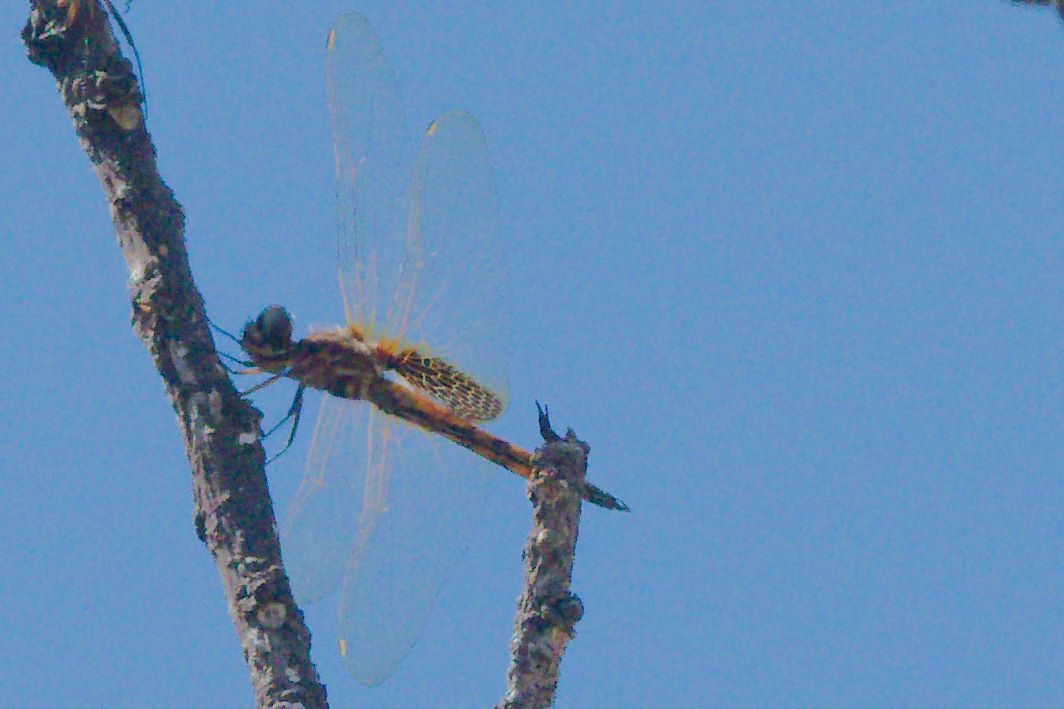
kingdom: Animalia
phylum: Arthropoda
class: Insecta
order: Odonata
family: Libellulidae
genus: Miathyria
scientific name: Miathyria marcella
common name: Hyacinth glider
